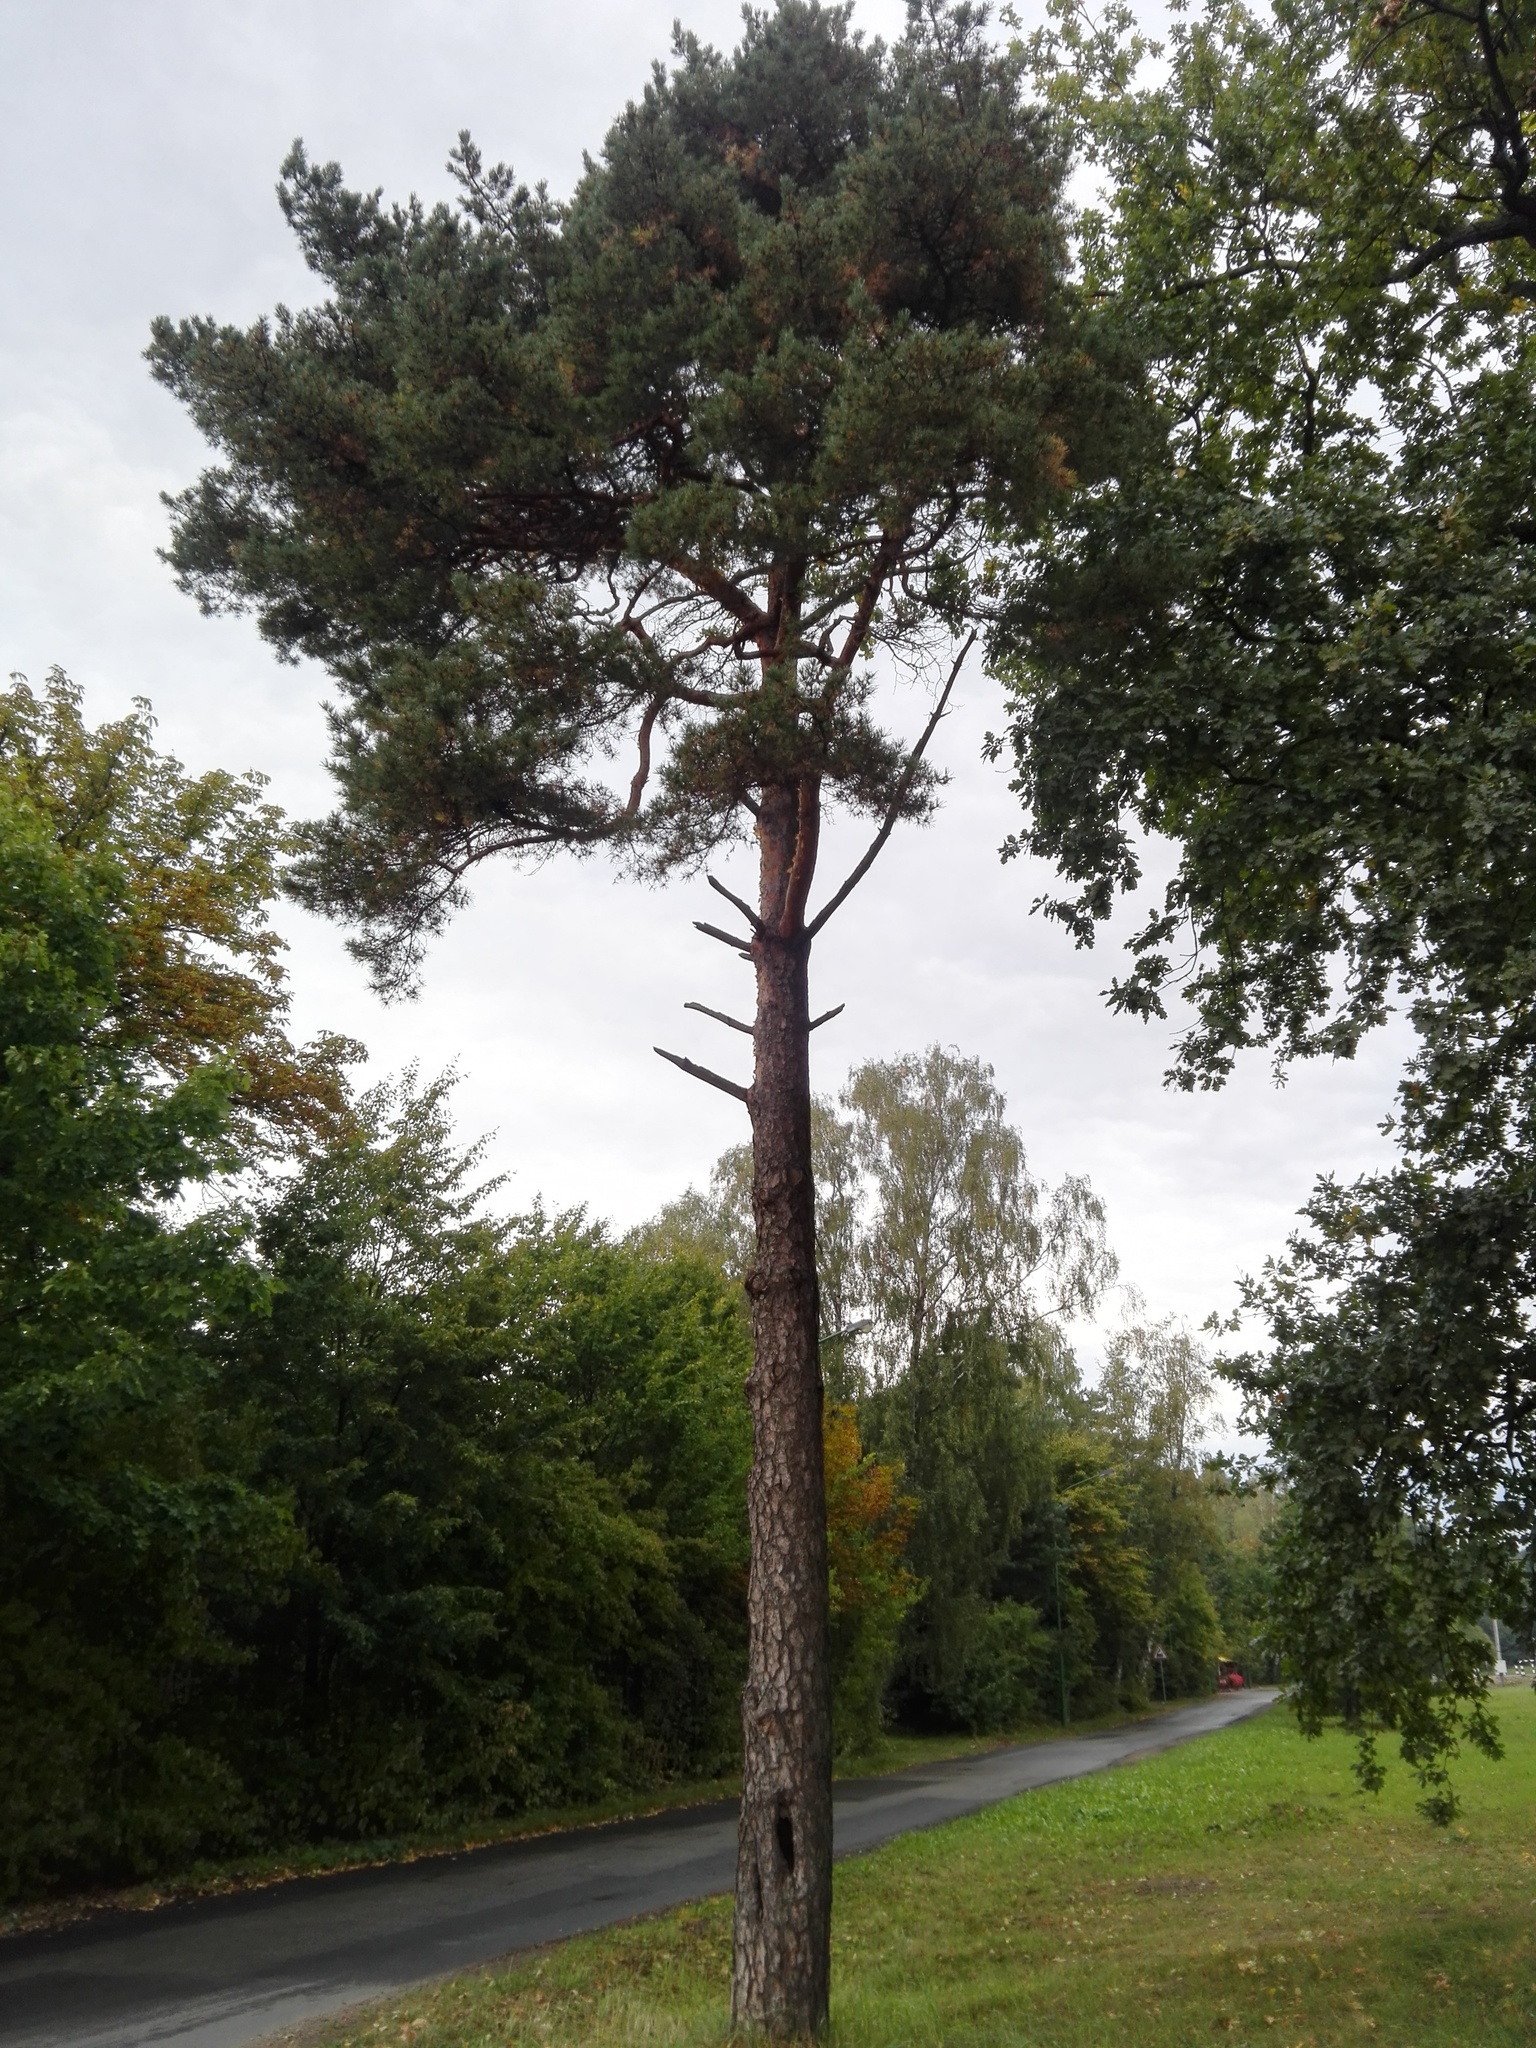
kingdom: Plantae
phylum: Tracheophyta
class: Pinopsida
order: Pinales
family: Pinaceae
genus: Pinus
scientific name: Pinus sylvestris
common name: Scots pine
